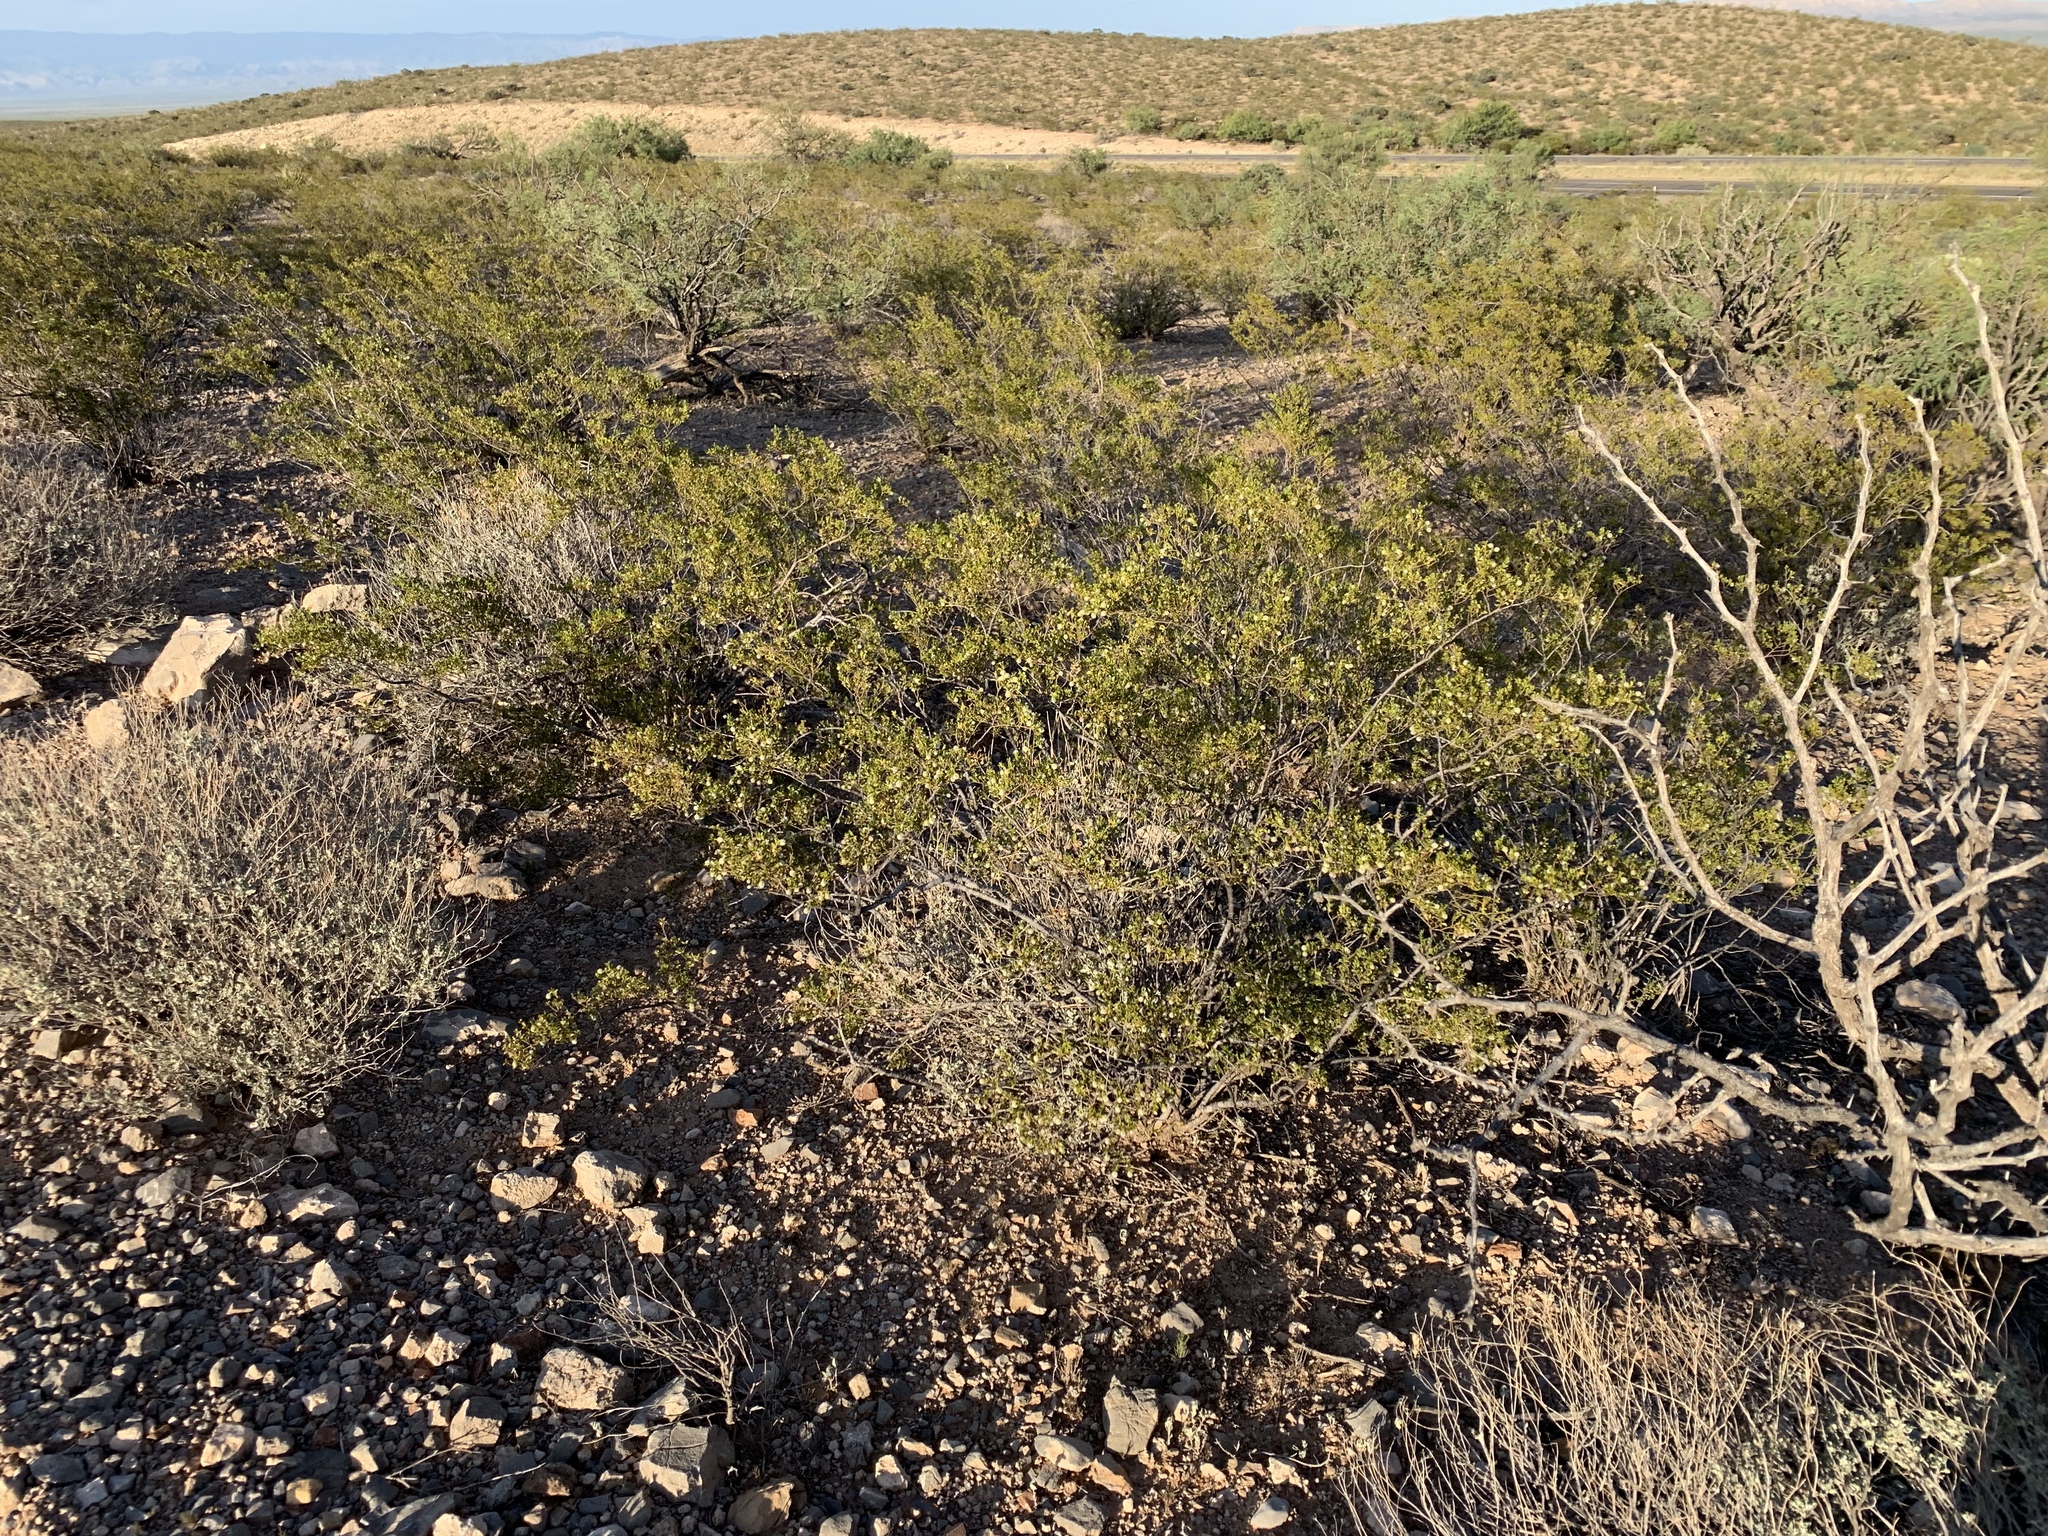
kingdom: Plantae
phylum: Tracheophyta
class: Magnoliopsida
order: Zygophyllales
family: Zygophyllaceae
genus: Larrea
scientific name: Larrea tridentata
